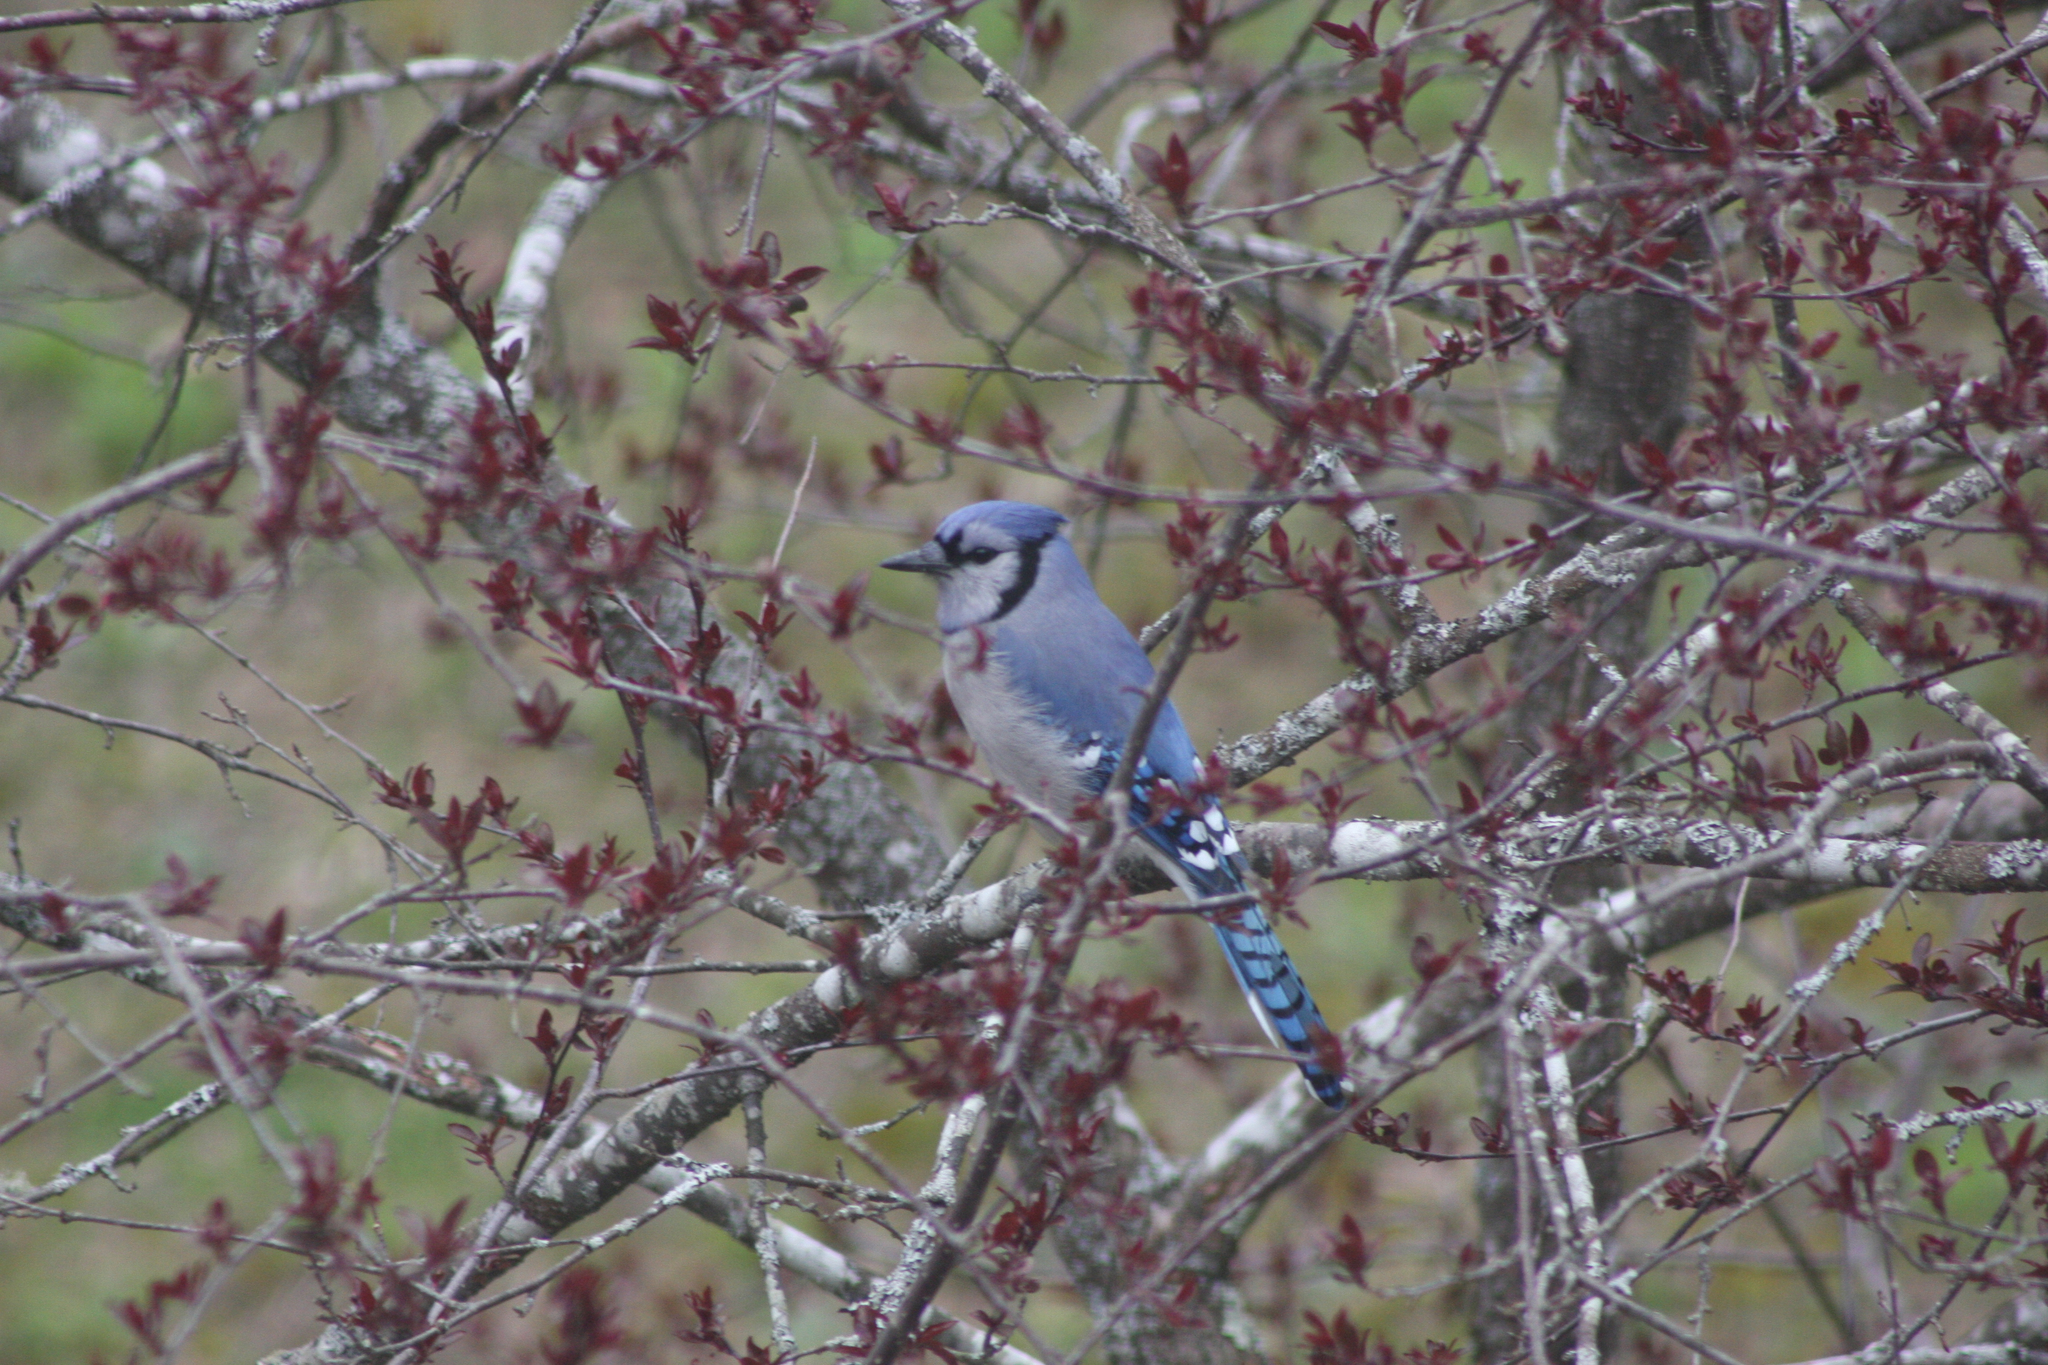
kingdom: Animalia
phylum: Chordata
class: Aves
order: Passeriformes
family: Corvidae
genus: Cyanocitta
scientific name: Cyanocitta cristata
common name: Blue jay
